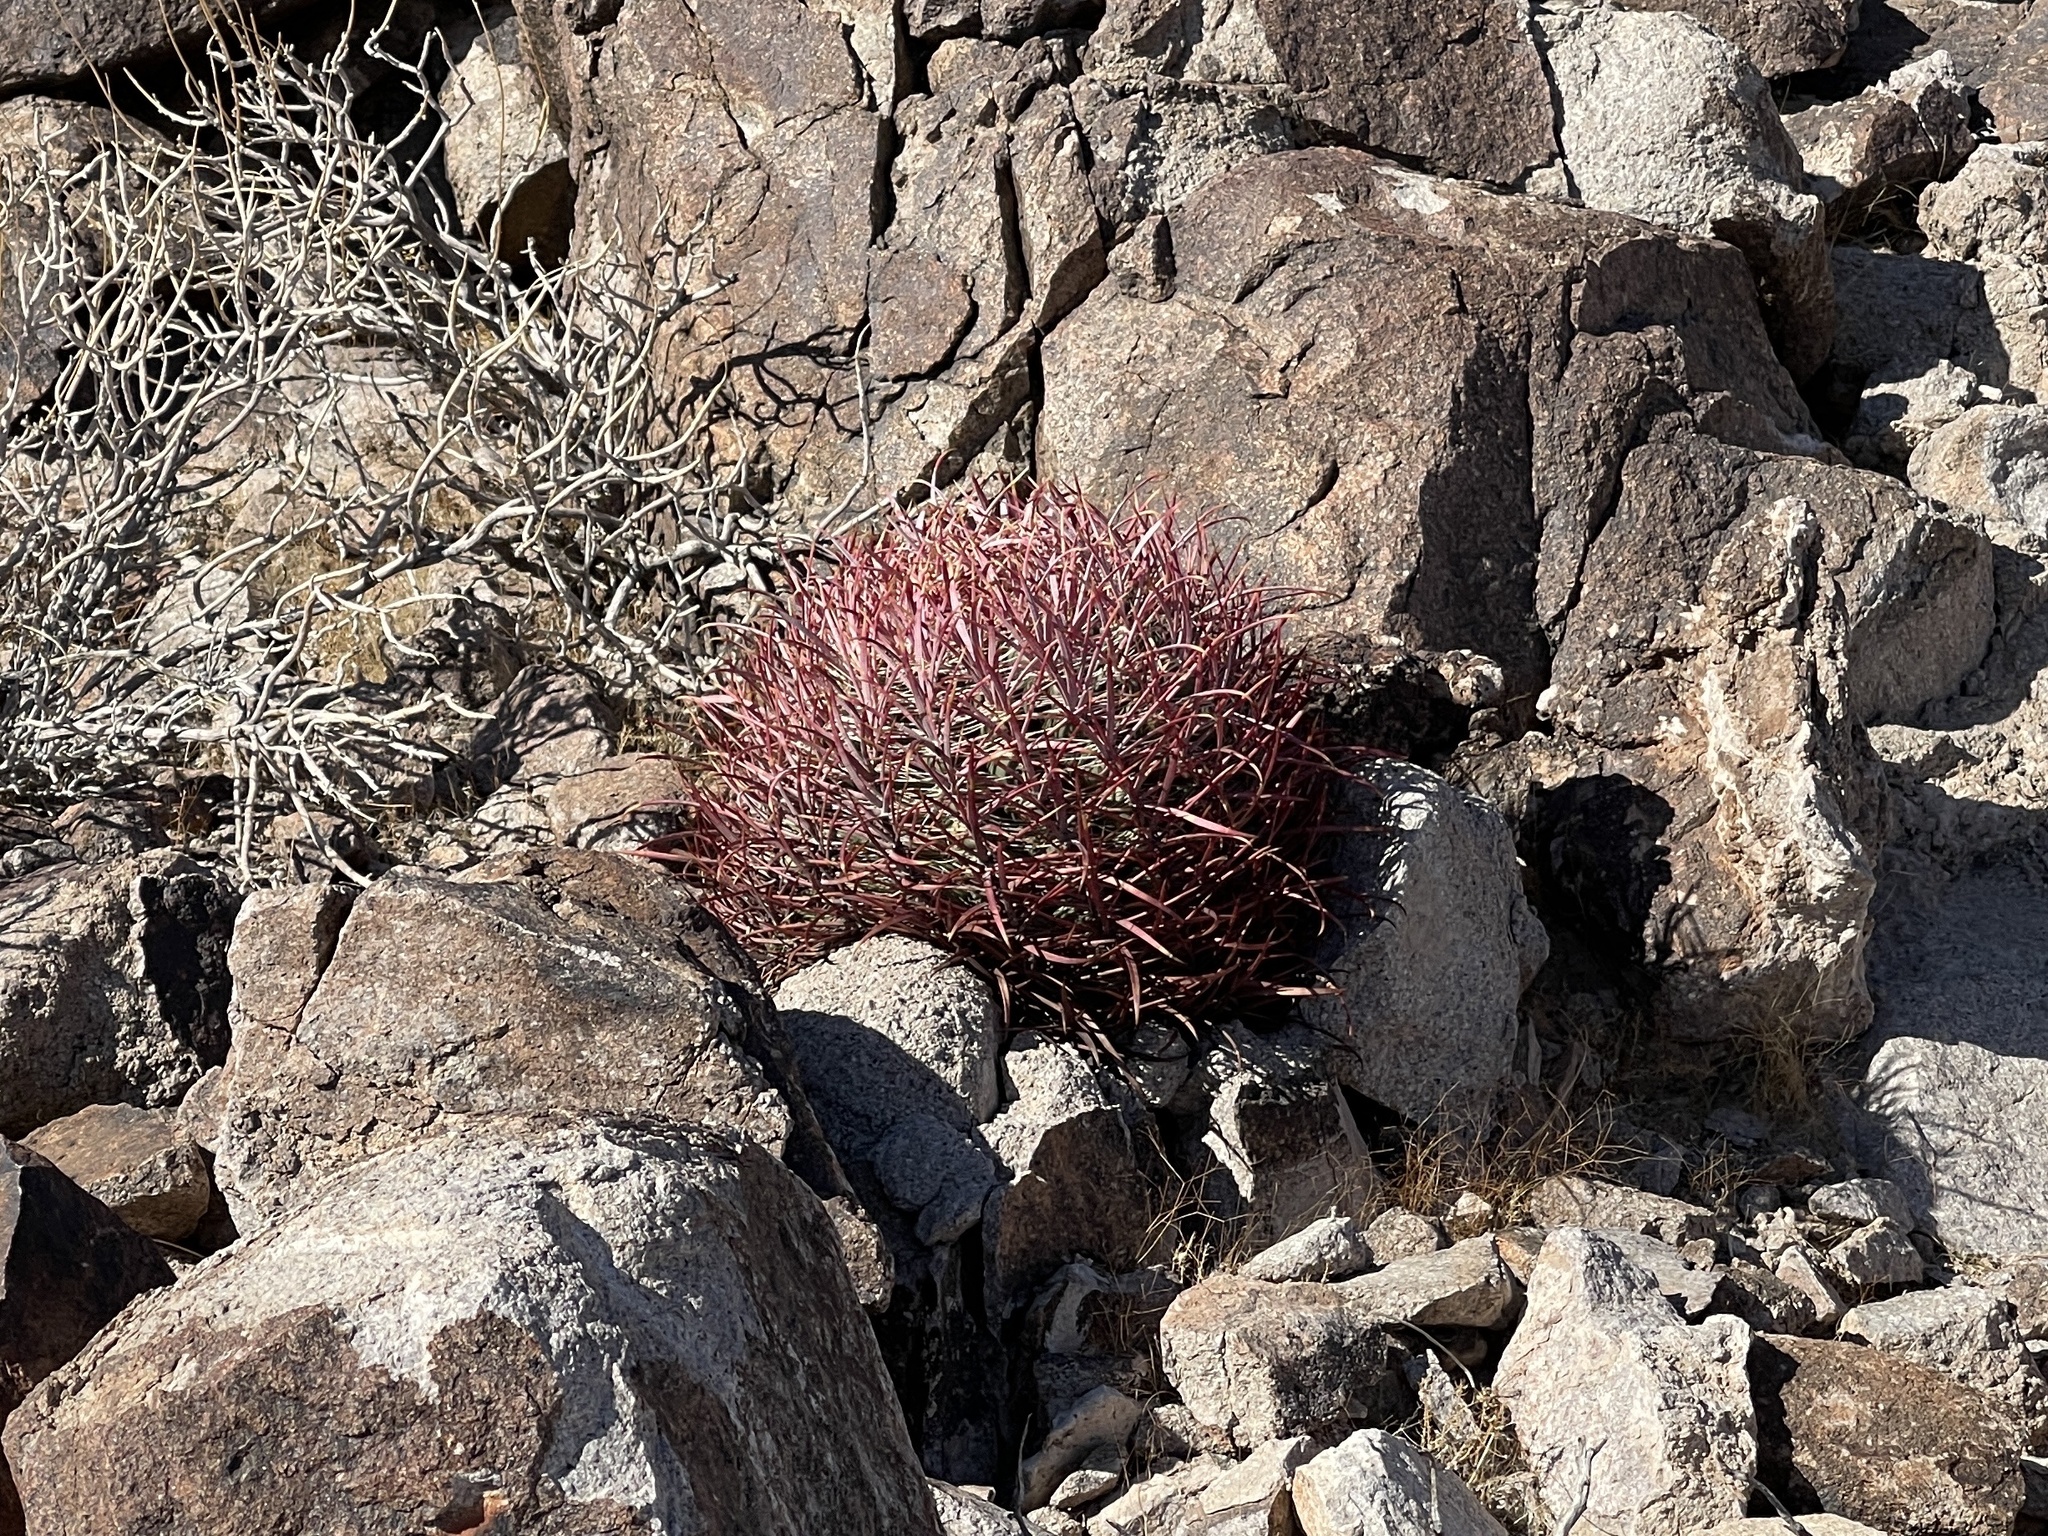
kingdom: Plantae
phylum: Tracheophyta
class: Magnoliopsida
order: Caryophyllales
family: Cactaceae
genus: Ferocactus
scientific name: Ferocactus cylindraceus
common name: California barrel cactus
